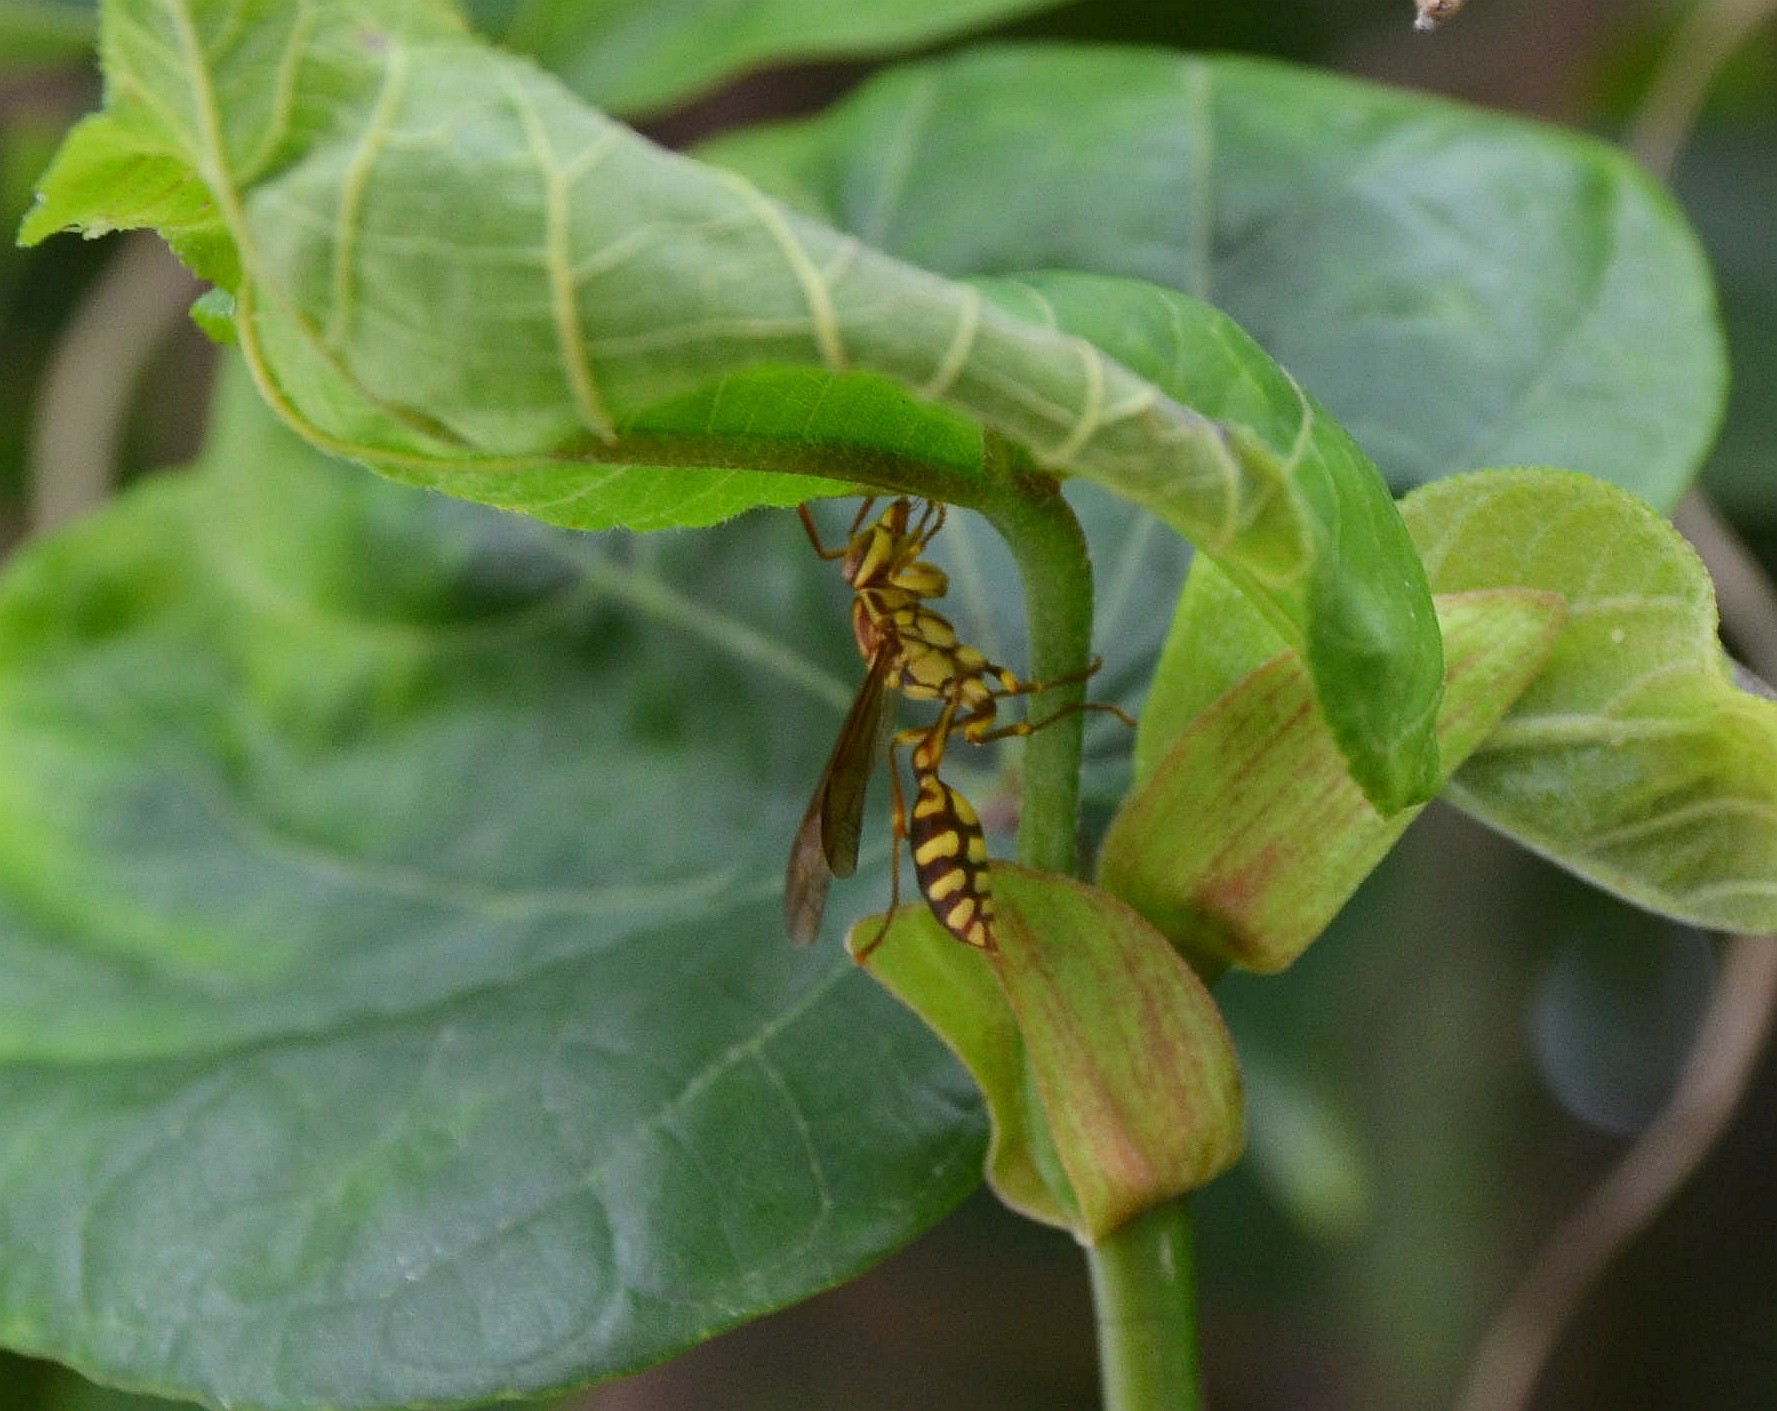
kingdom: Animalia
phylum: Arthropoda
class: Insecta
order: Hymenoptera
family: Vespidae
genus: Parapolybia
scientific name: Parapolybia varia
